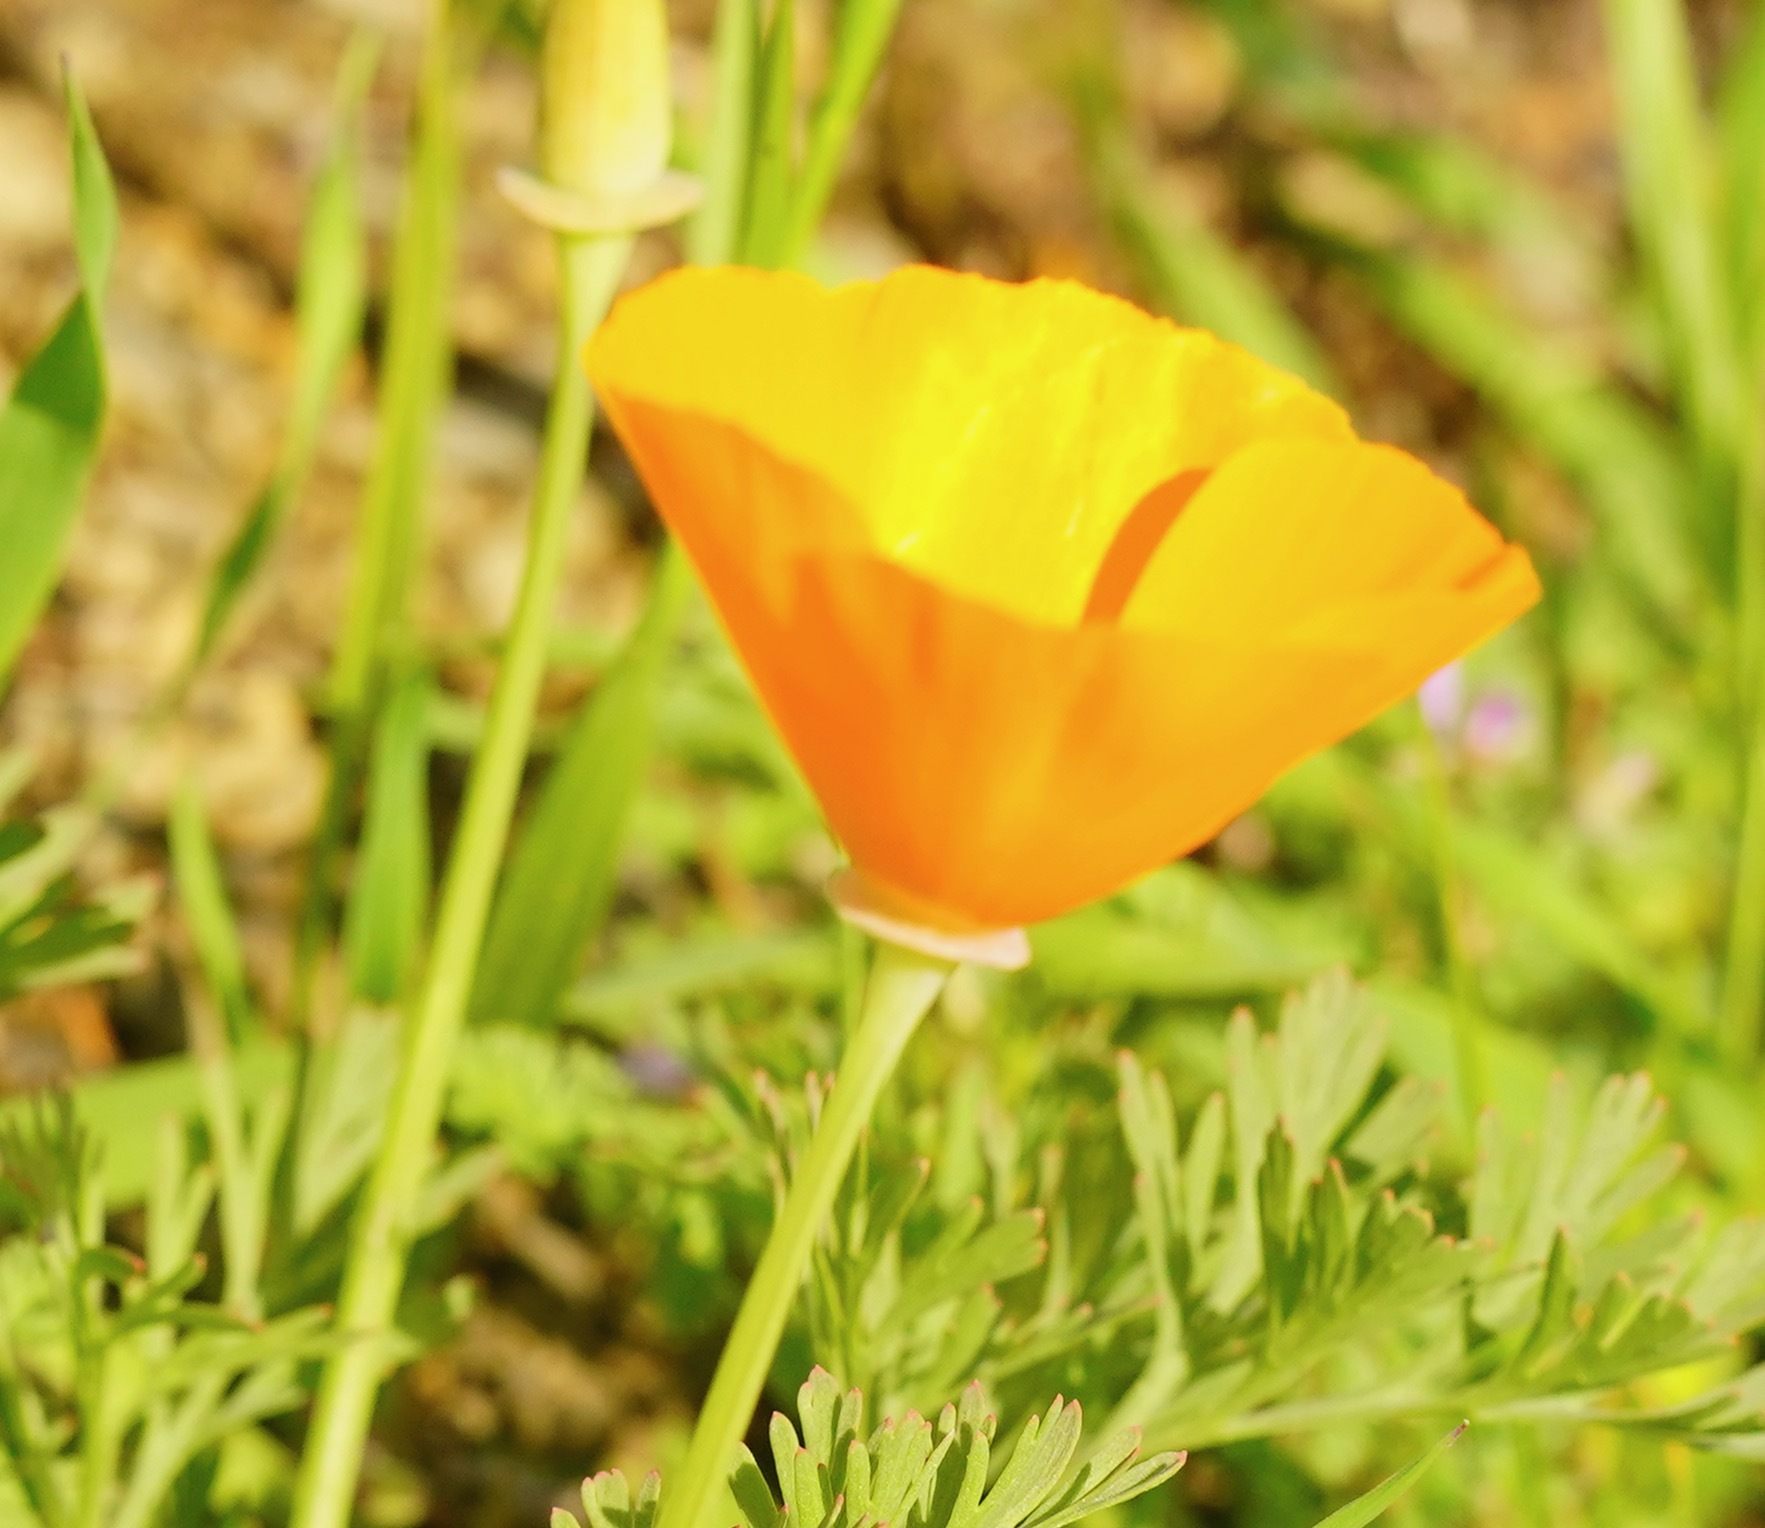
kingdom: Plantae
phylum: Tracheophyta
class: Magnoliopsida
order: Ranunculales
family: Papaveraceae
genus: Eschscholzia
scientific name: Eschscholzia californica
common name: California poppy
